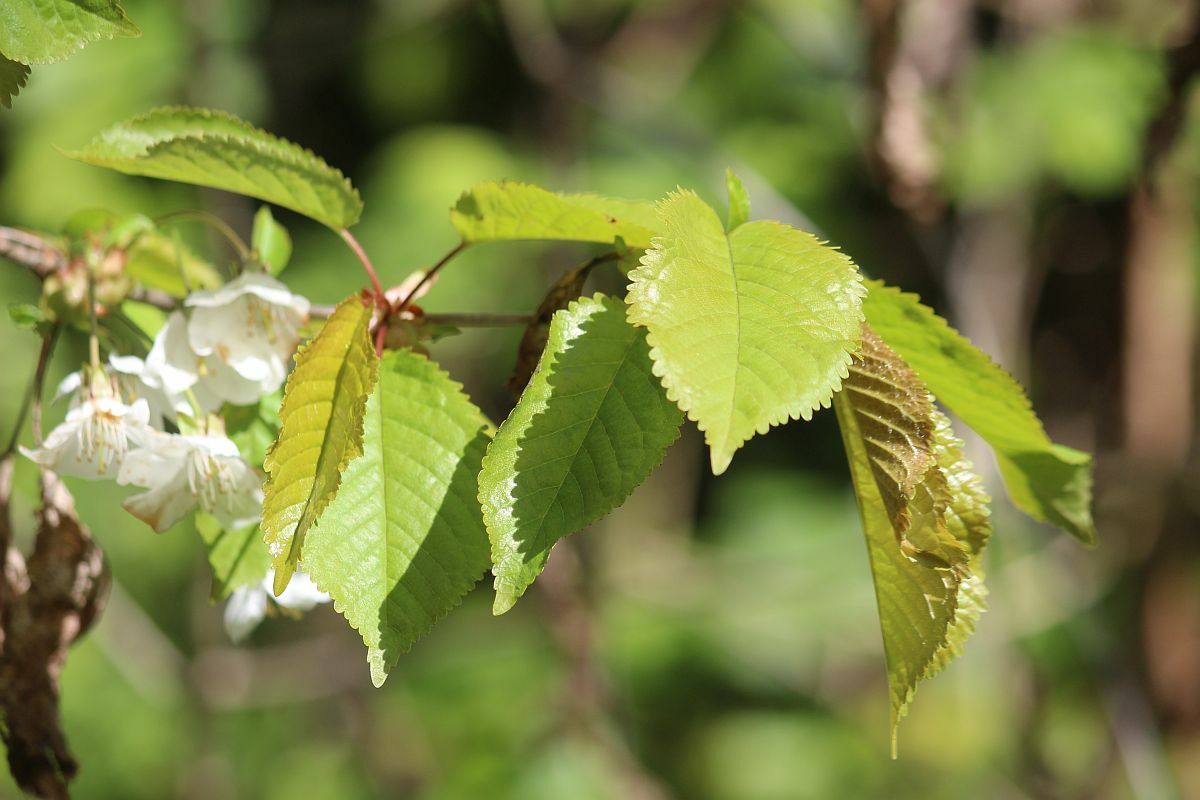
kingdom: Plantae
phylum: Tracheophyta
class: Magnoliopsida
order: Rosales
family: Rosaceae
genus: Prunus
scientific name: Prunus avium
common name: Sweet cherry
